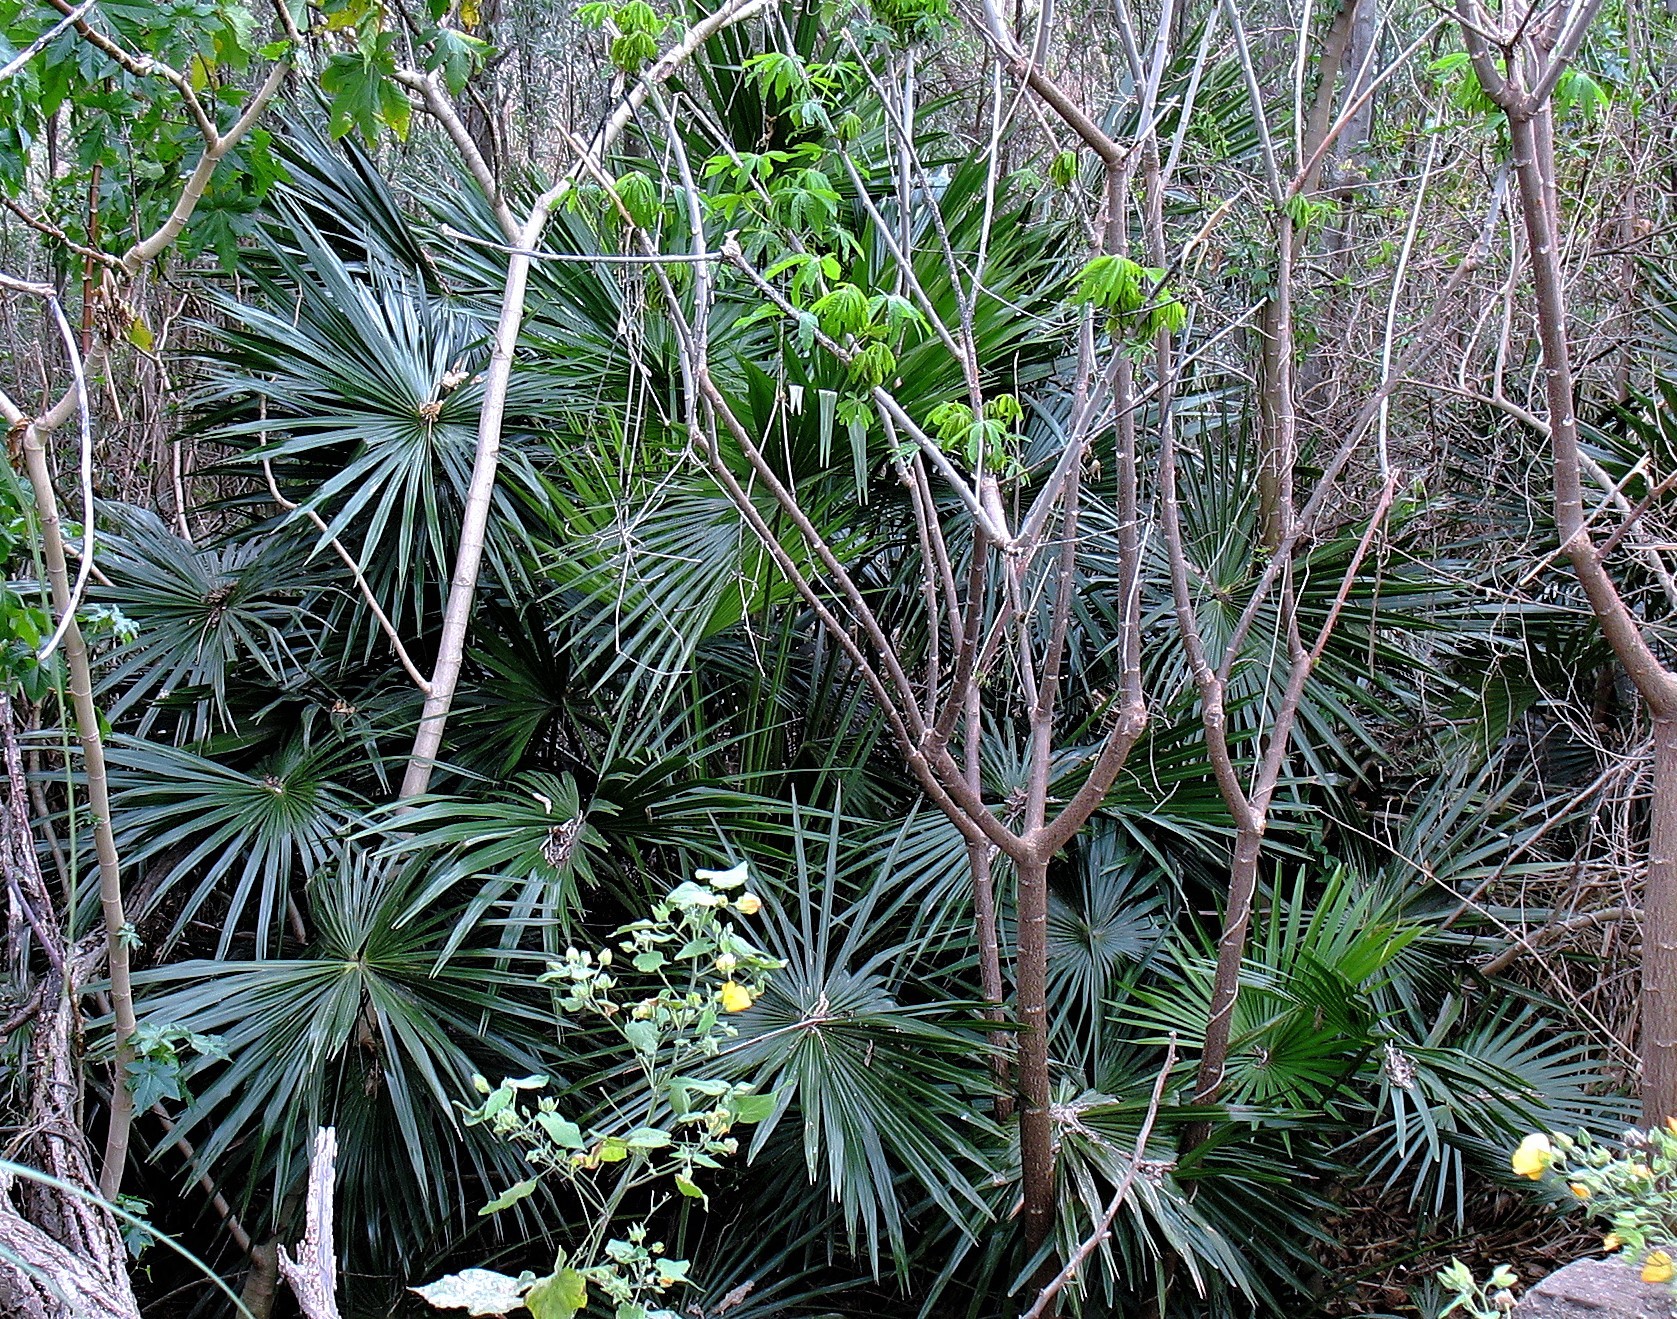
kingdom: Plantae
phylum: Tracheophyta
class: Liliopsida
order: Arecales
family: Arecaceae
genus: Trachycarpus
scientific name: Trachycarpus fortunei
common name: Chusan palm
